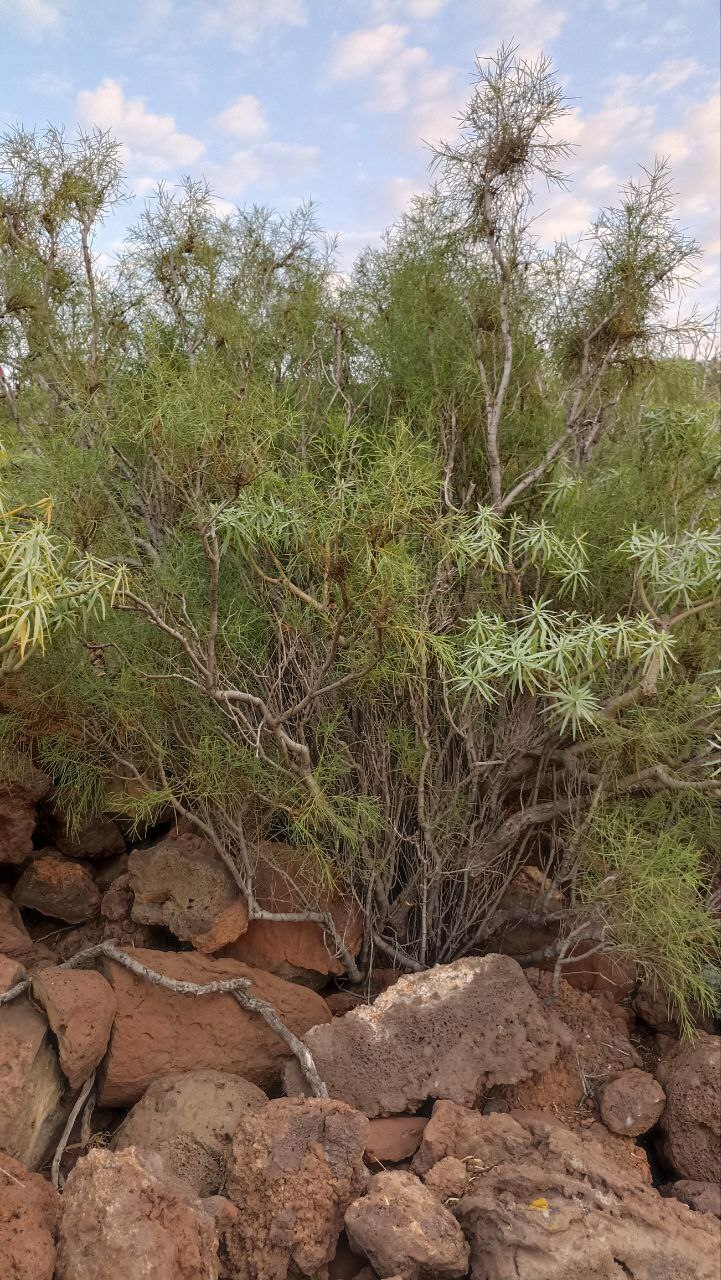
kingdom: Plantae
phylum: Tracheophyta
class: Magnoliopsida
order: Gentianales
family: Rubiaceae
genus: Plocama
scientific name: Plocama pendula
